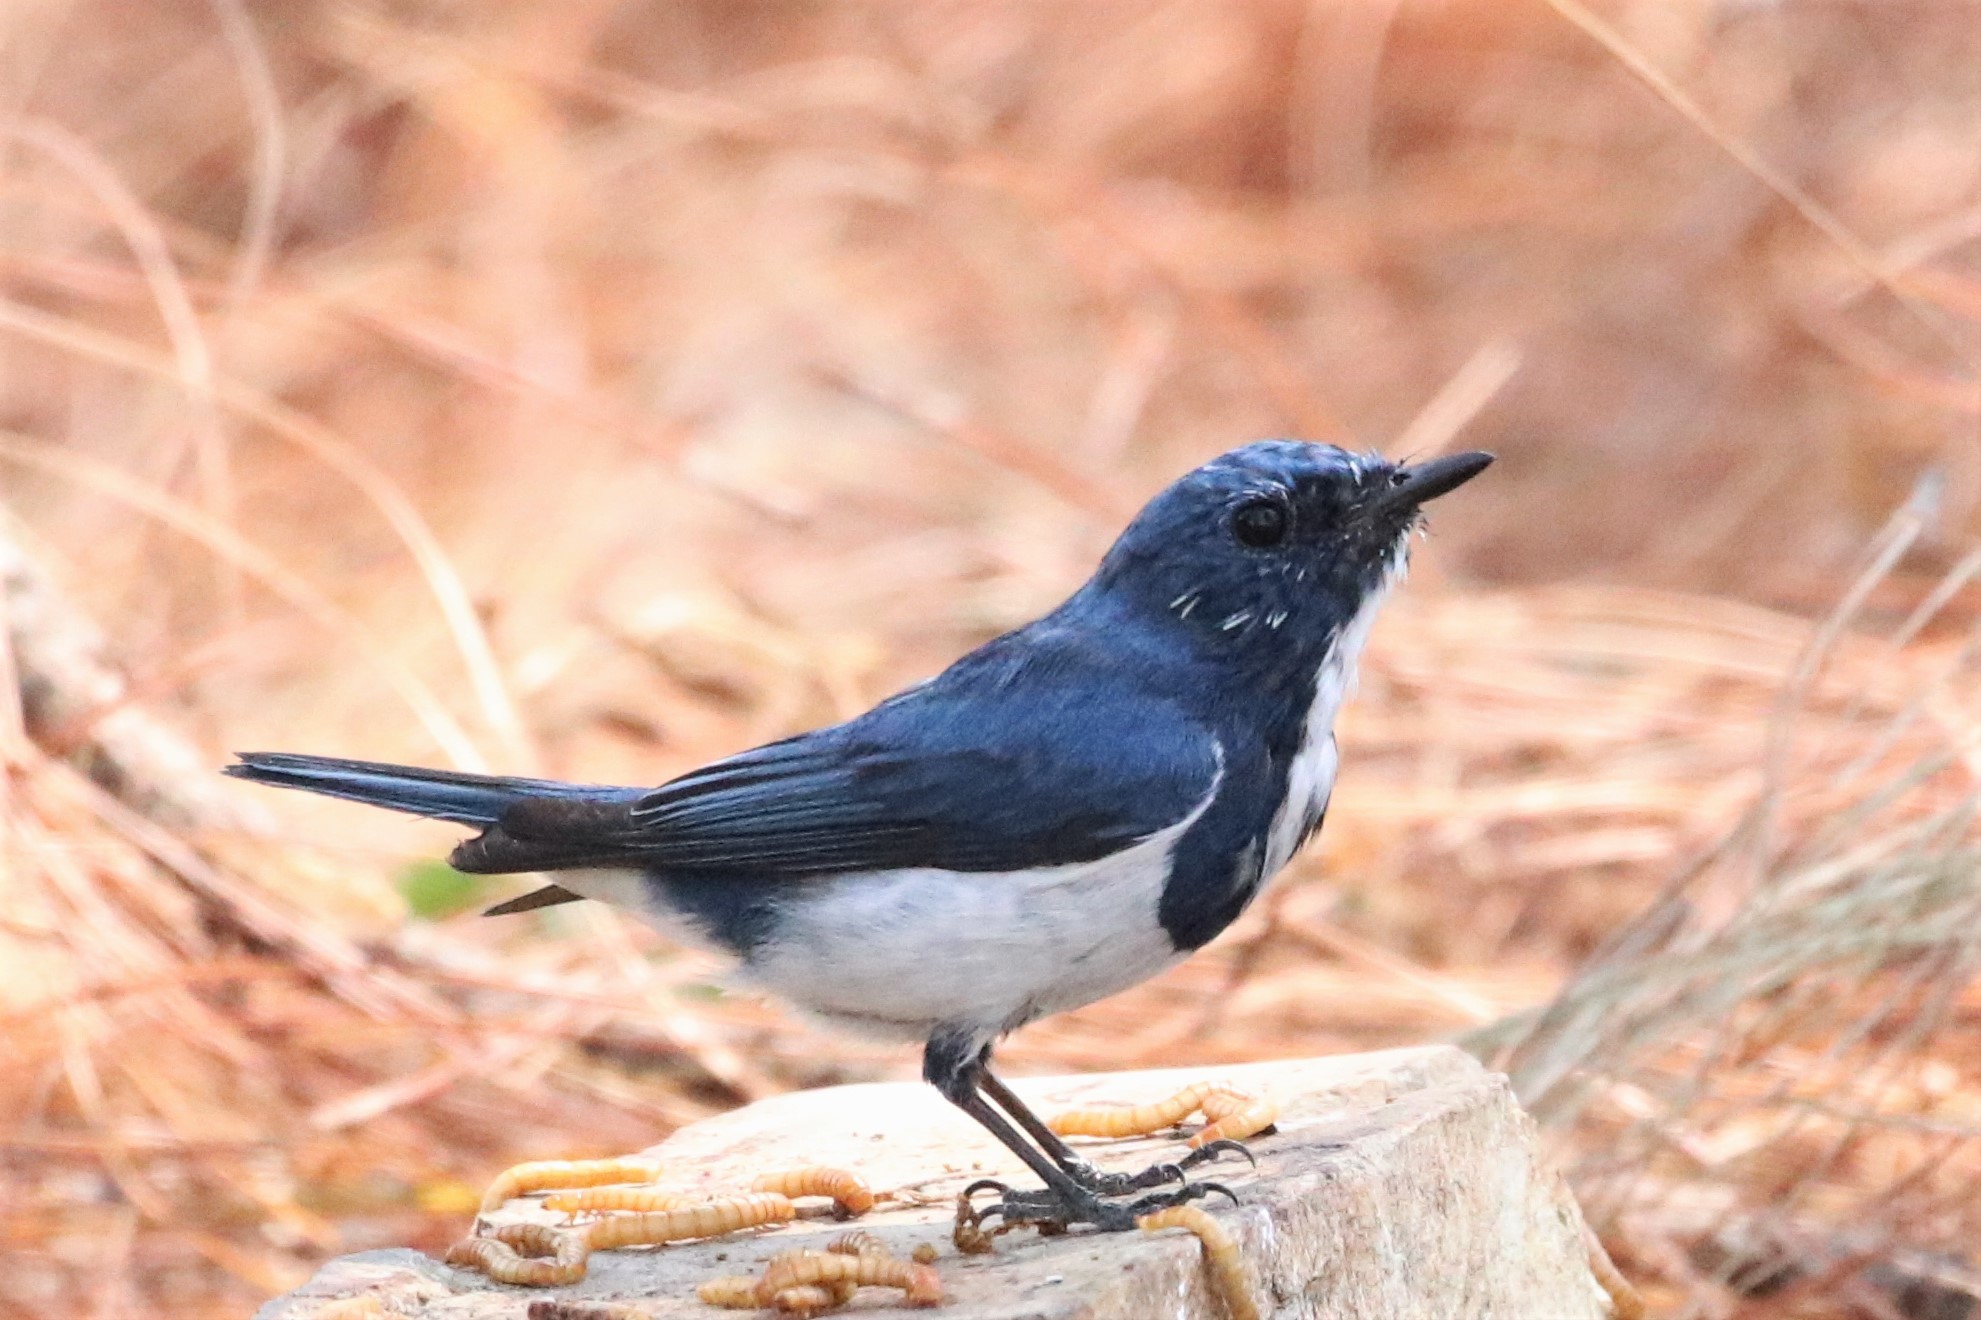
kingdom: Animalia
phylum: Chordata
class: Aves
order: Passeriformes
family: Muscicapidae
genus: Ficedula
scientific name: Ficedula superciliaris
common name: Ultramarine flycatcher
